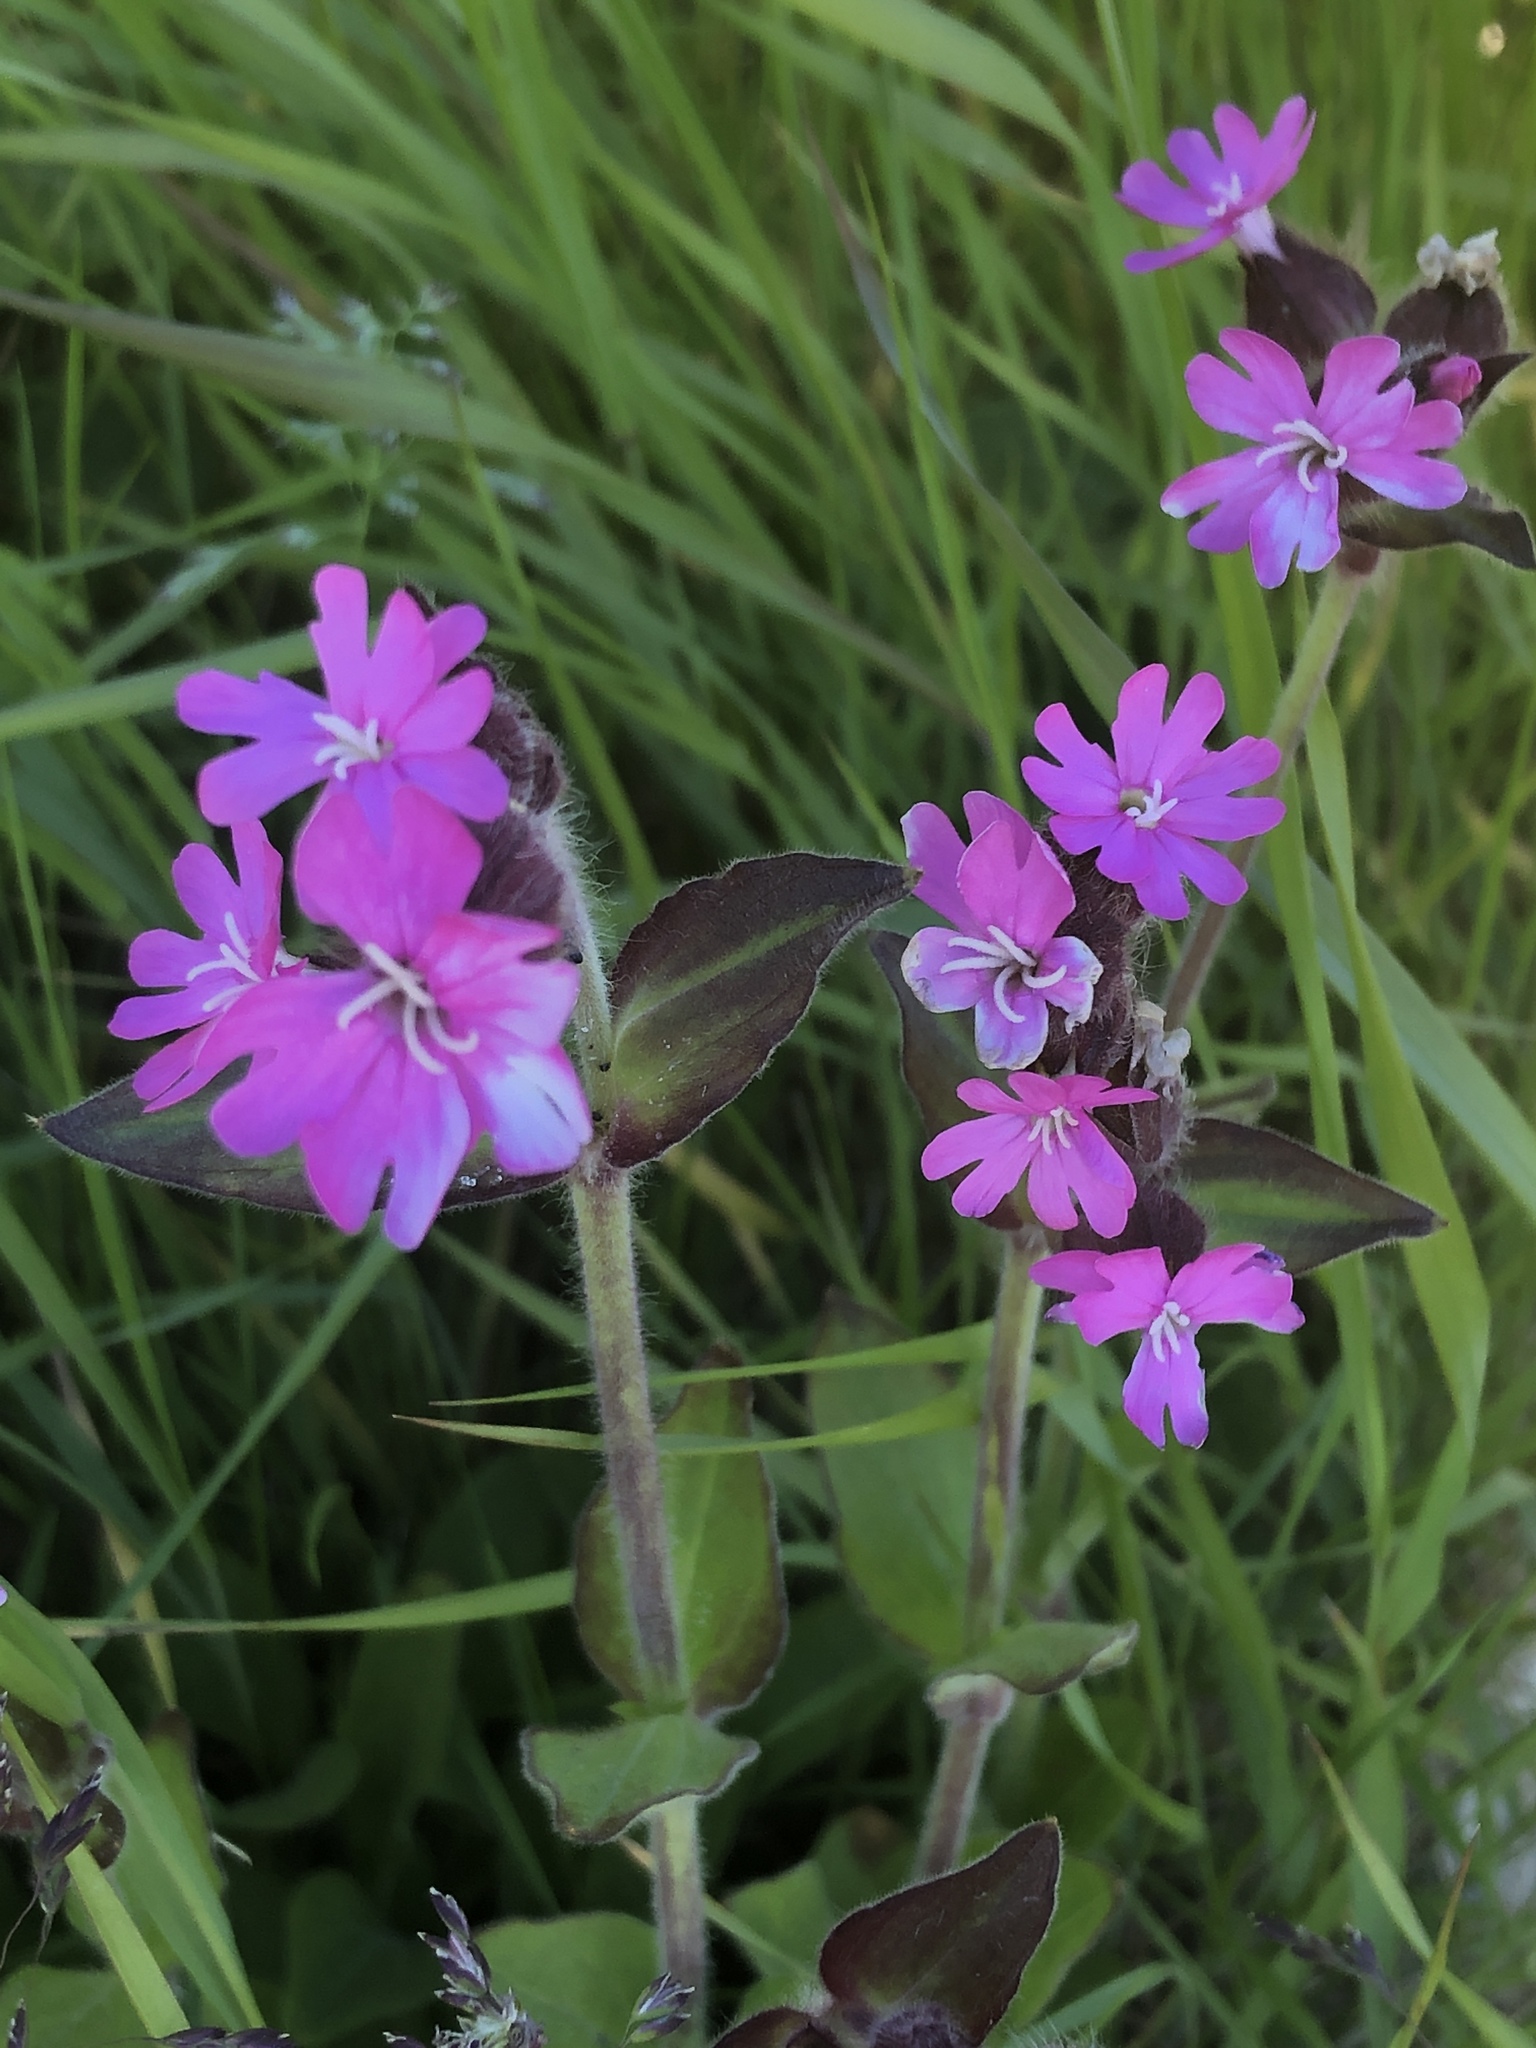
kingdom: Plantae
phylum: Tracheophyta
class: Magnoliopsida
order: Caryophyllales
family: Caryophyllaceae
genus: Silene
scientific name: Silene dioica
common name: Red campion
